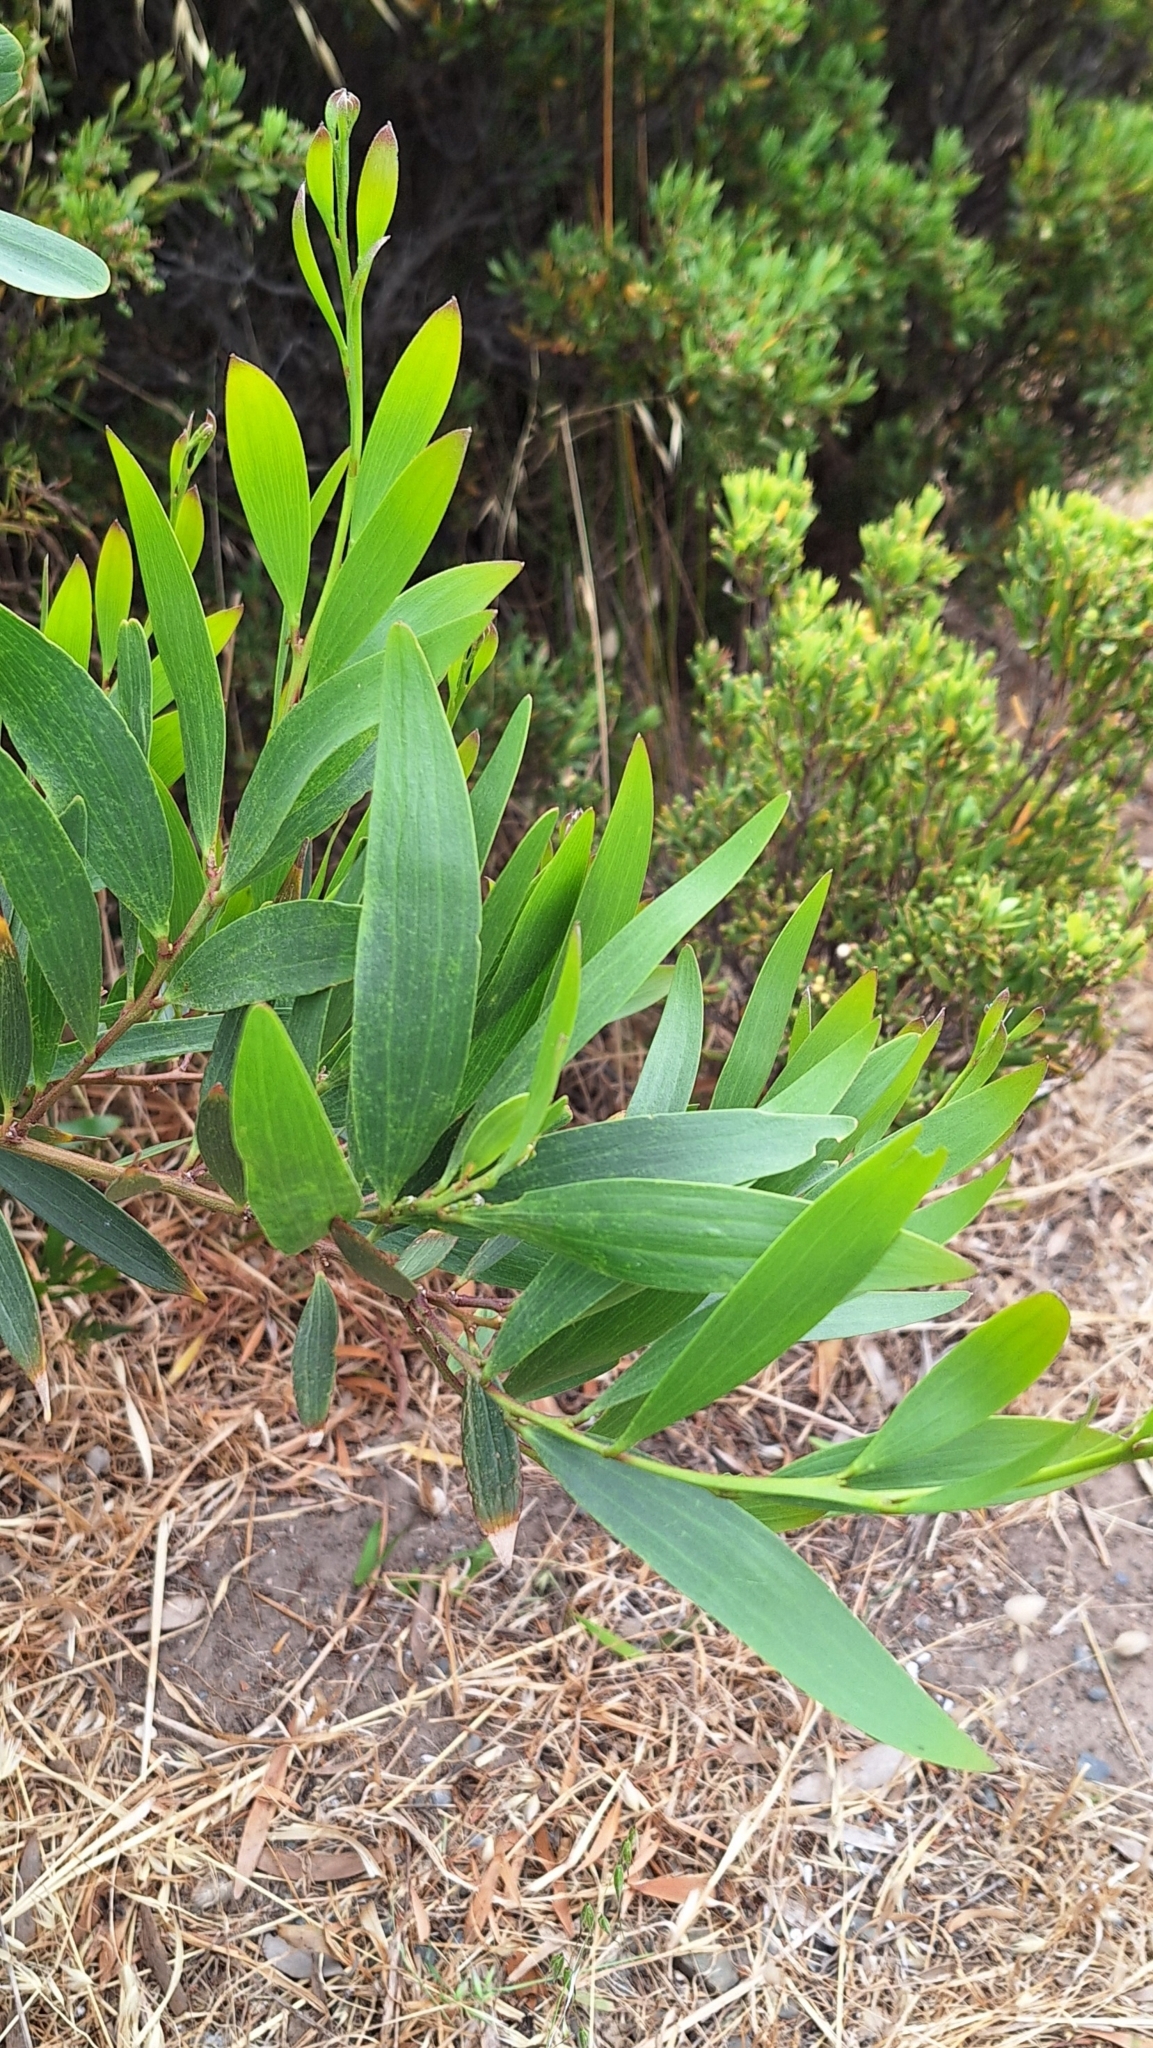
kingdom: Plantae
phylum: Tracheophyta
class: Magnoliopsida
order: Fabales
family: Fabaceae
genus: Acacia
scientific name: Acacia longifolia
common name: Sydney golden wattle
